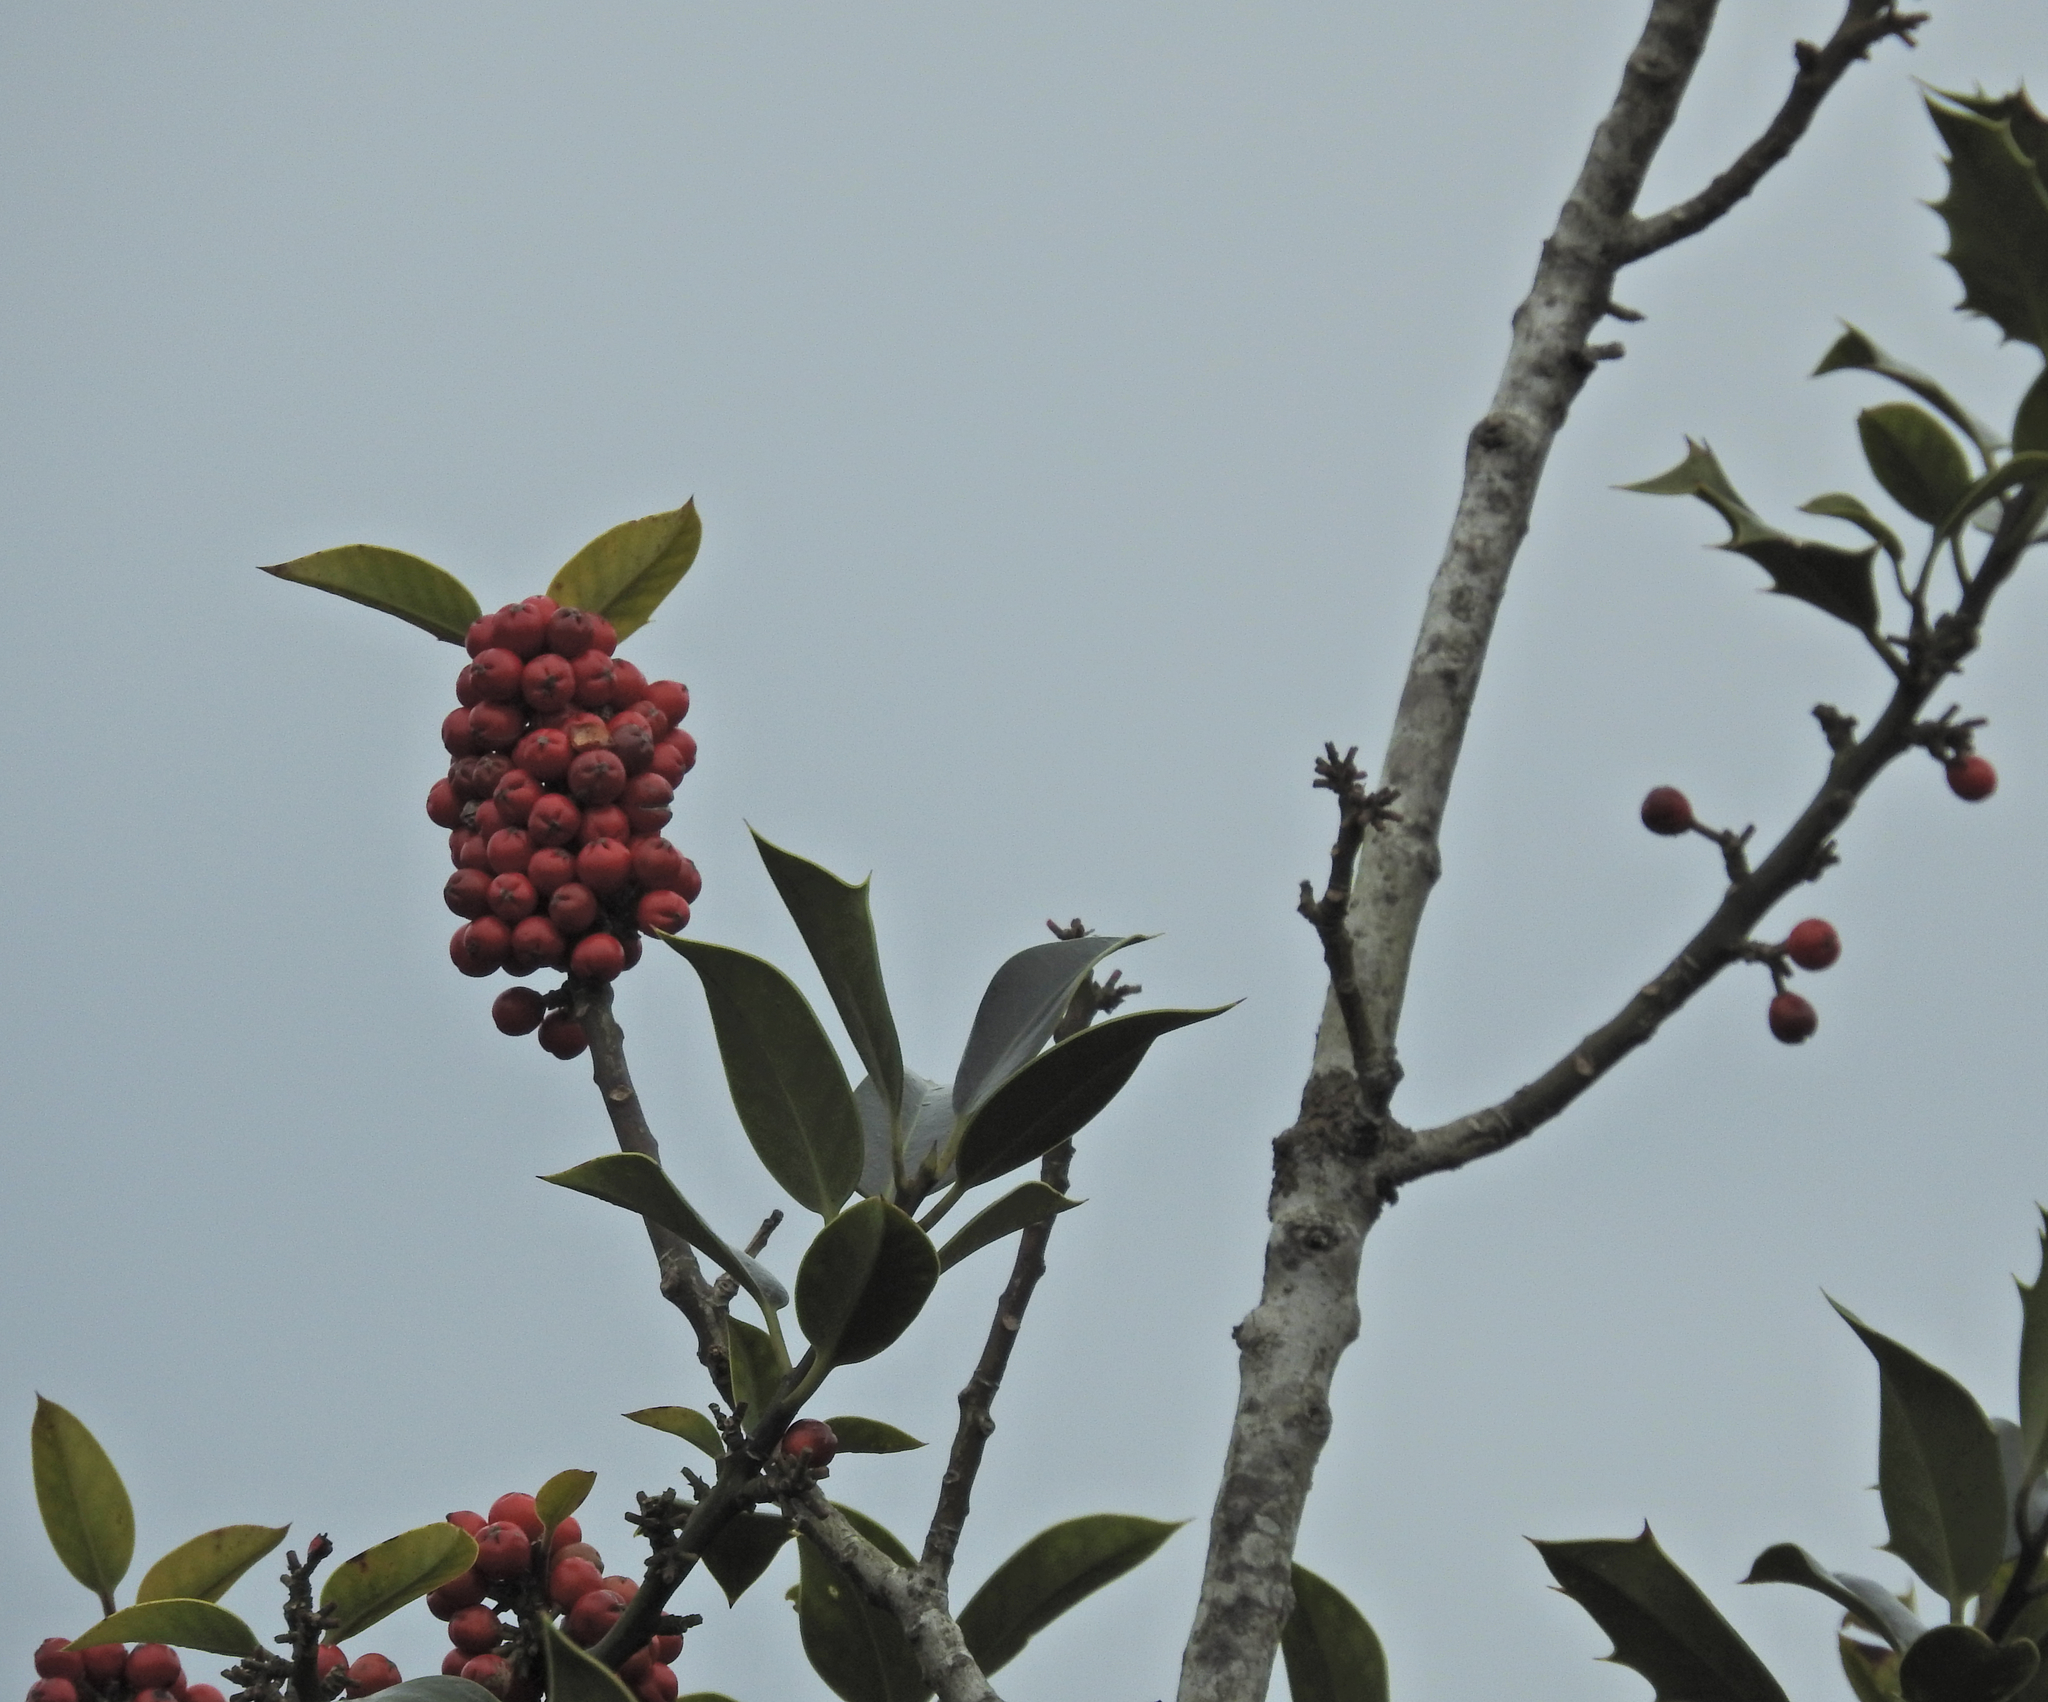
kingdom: Plantae
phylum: Tracheophyta
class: Magnoliopsida
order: Aquifoliales
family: Aquifoliaceae
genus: Ilex
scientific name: Ilex aquifolium
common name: English holly
